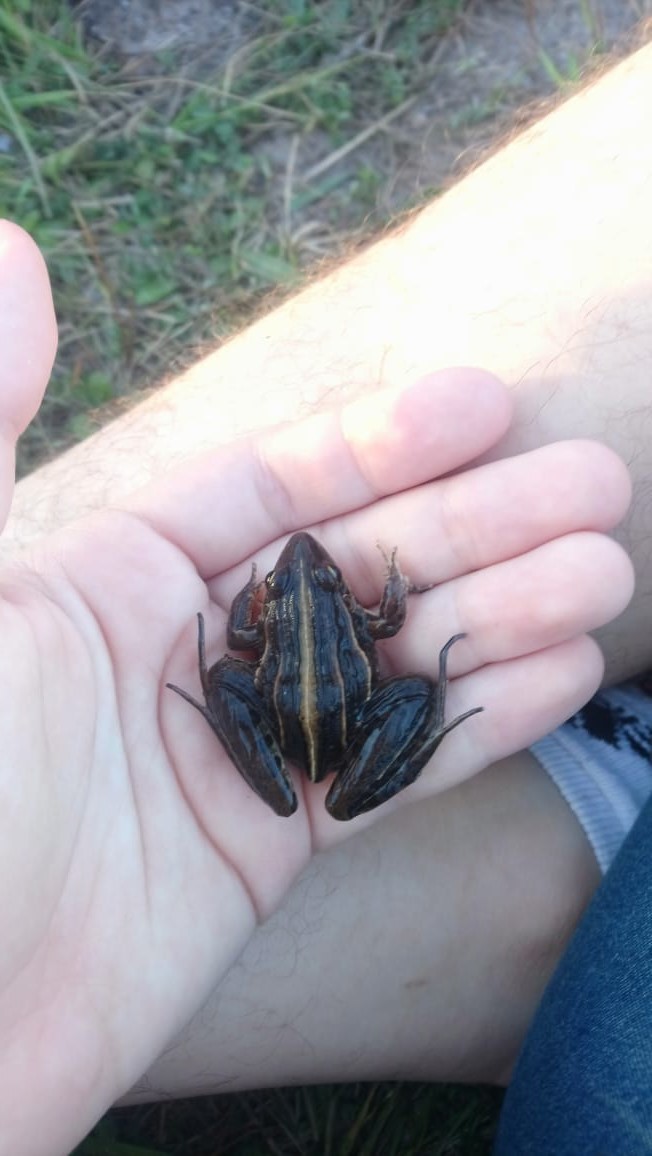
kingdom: Animalia
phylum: Chordata
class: Amphibia
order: Anura
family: Leptodactylidae
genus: Leptodactylus
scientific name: Leptodactylus gracilis
